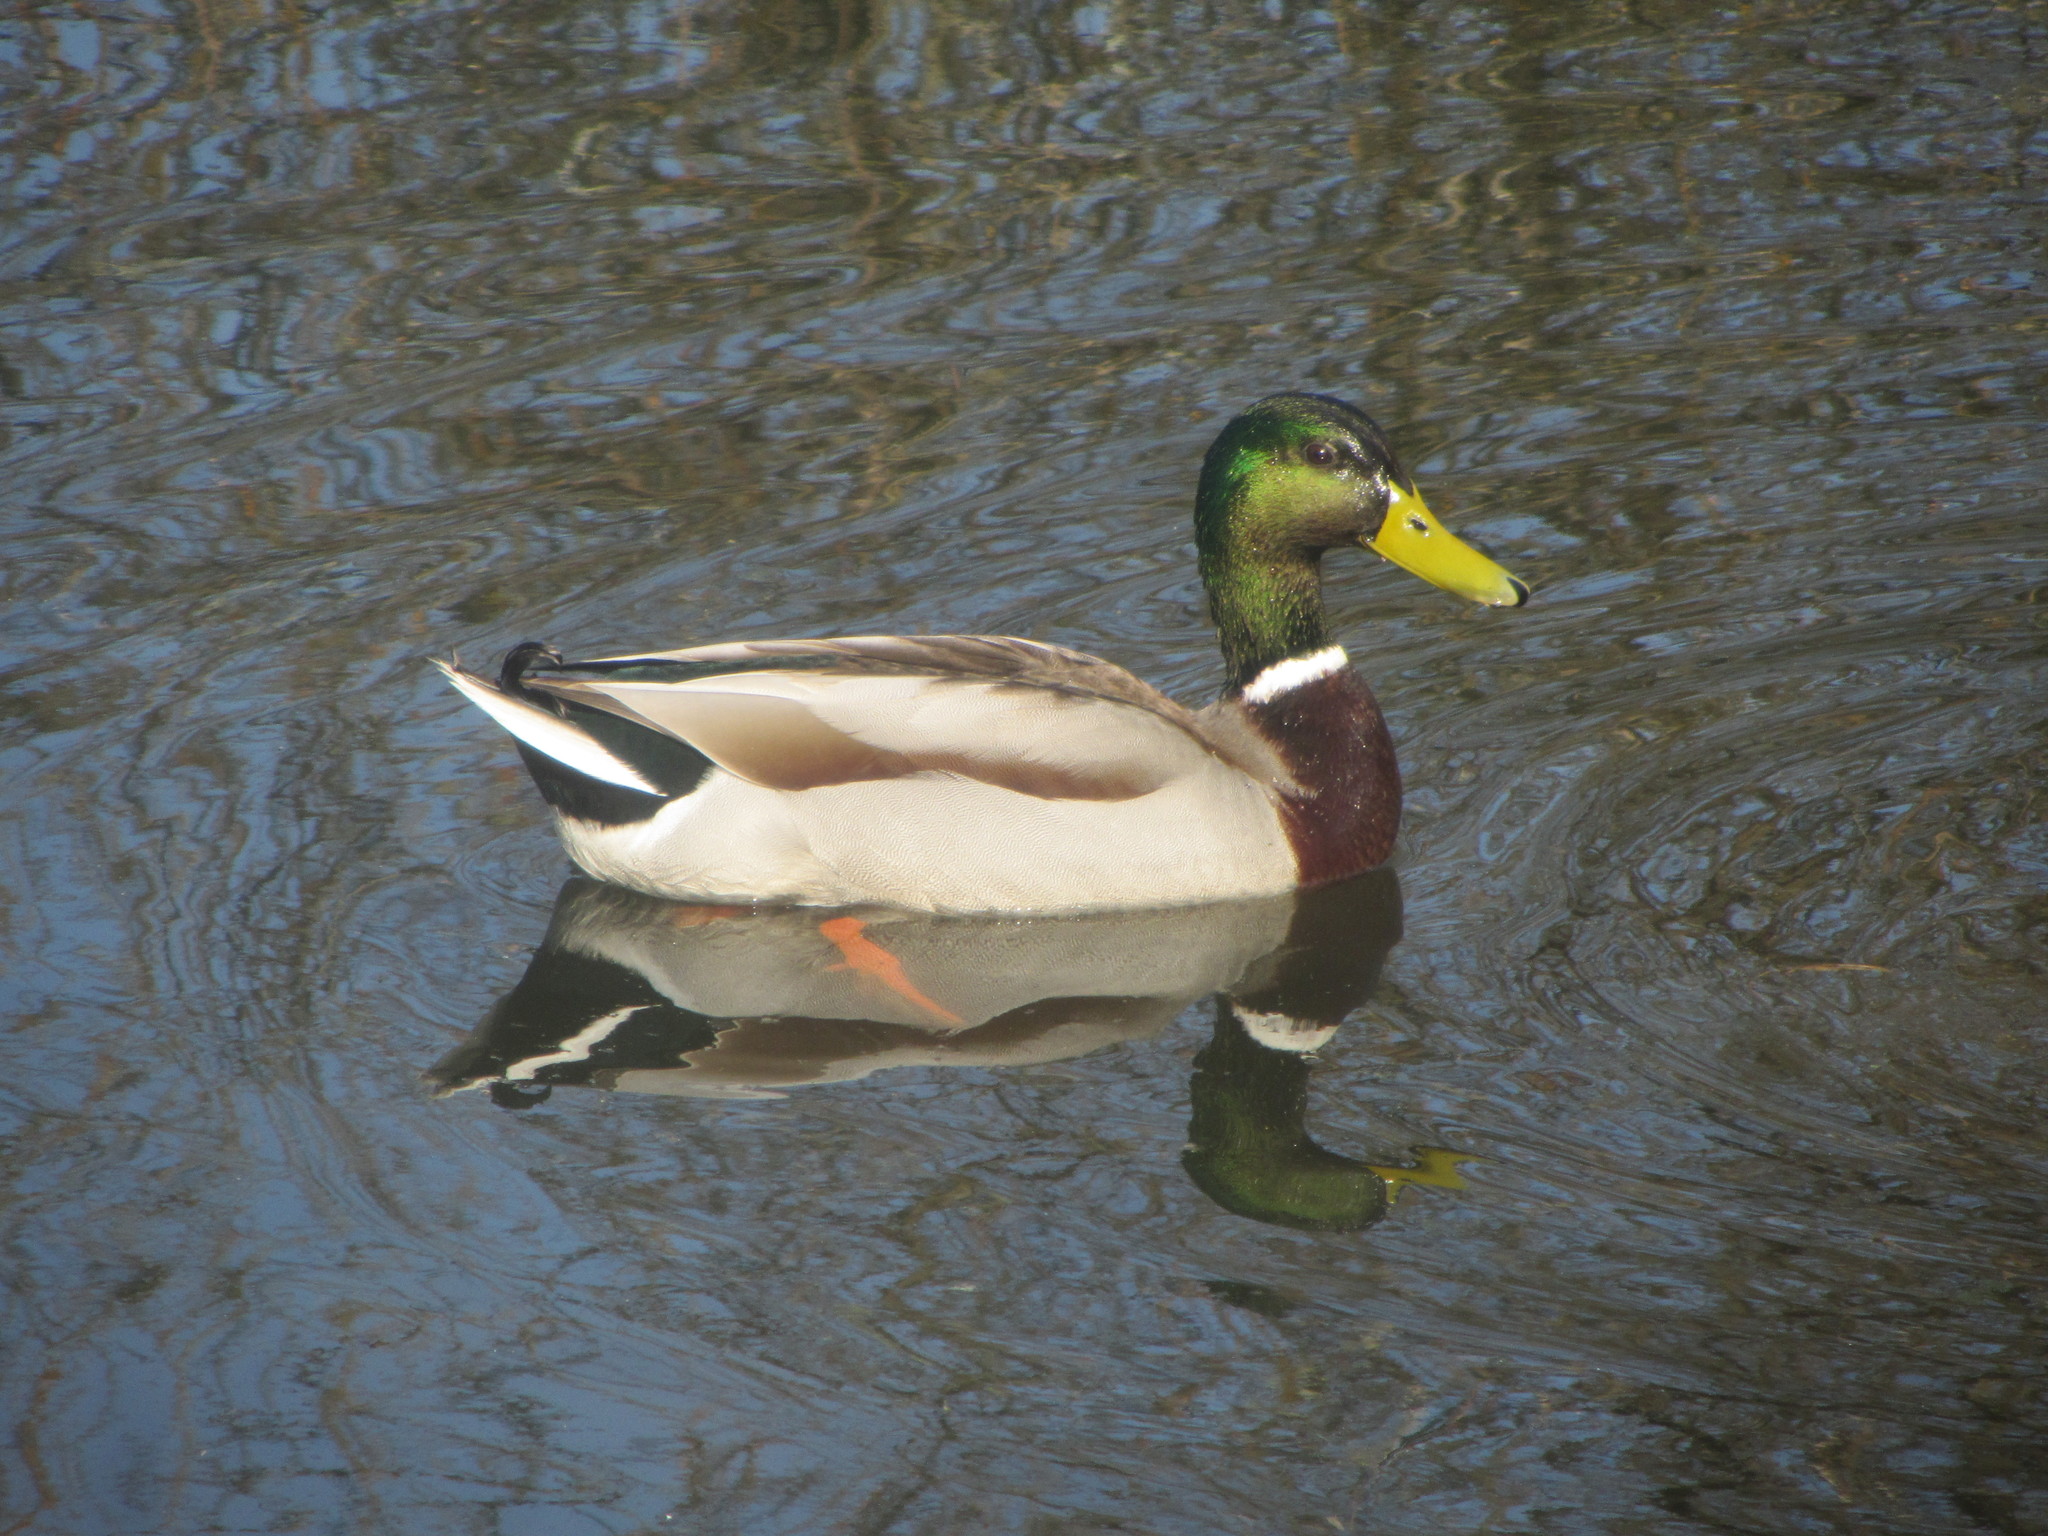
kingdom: Animalia
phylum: Chordata
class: Aves
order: Anseriformes
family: Anatidae
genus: Anas
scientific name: Anas platyrhynchos
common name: Mallard
